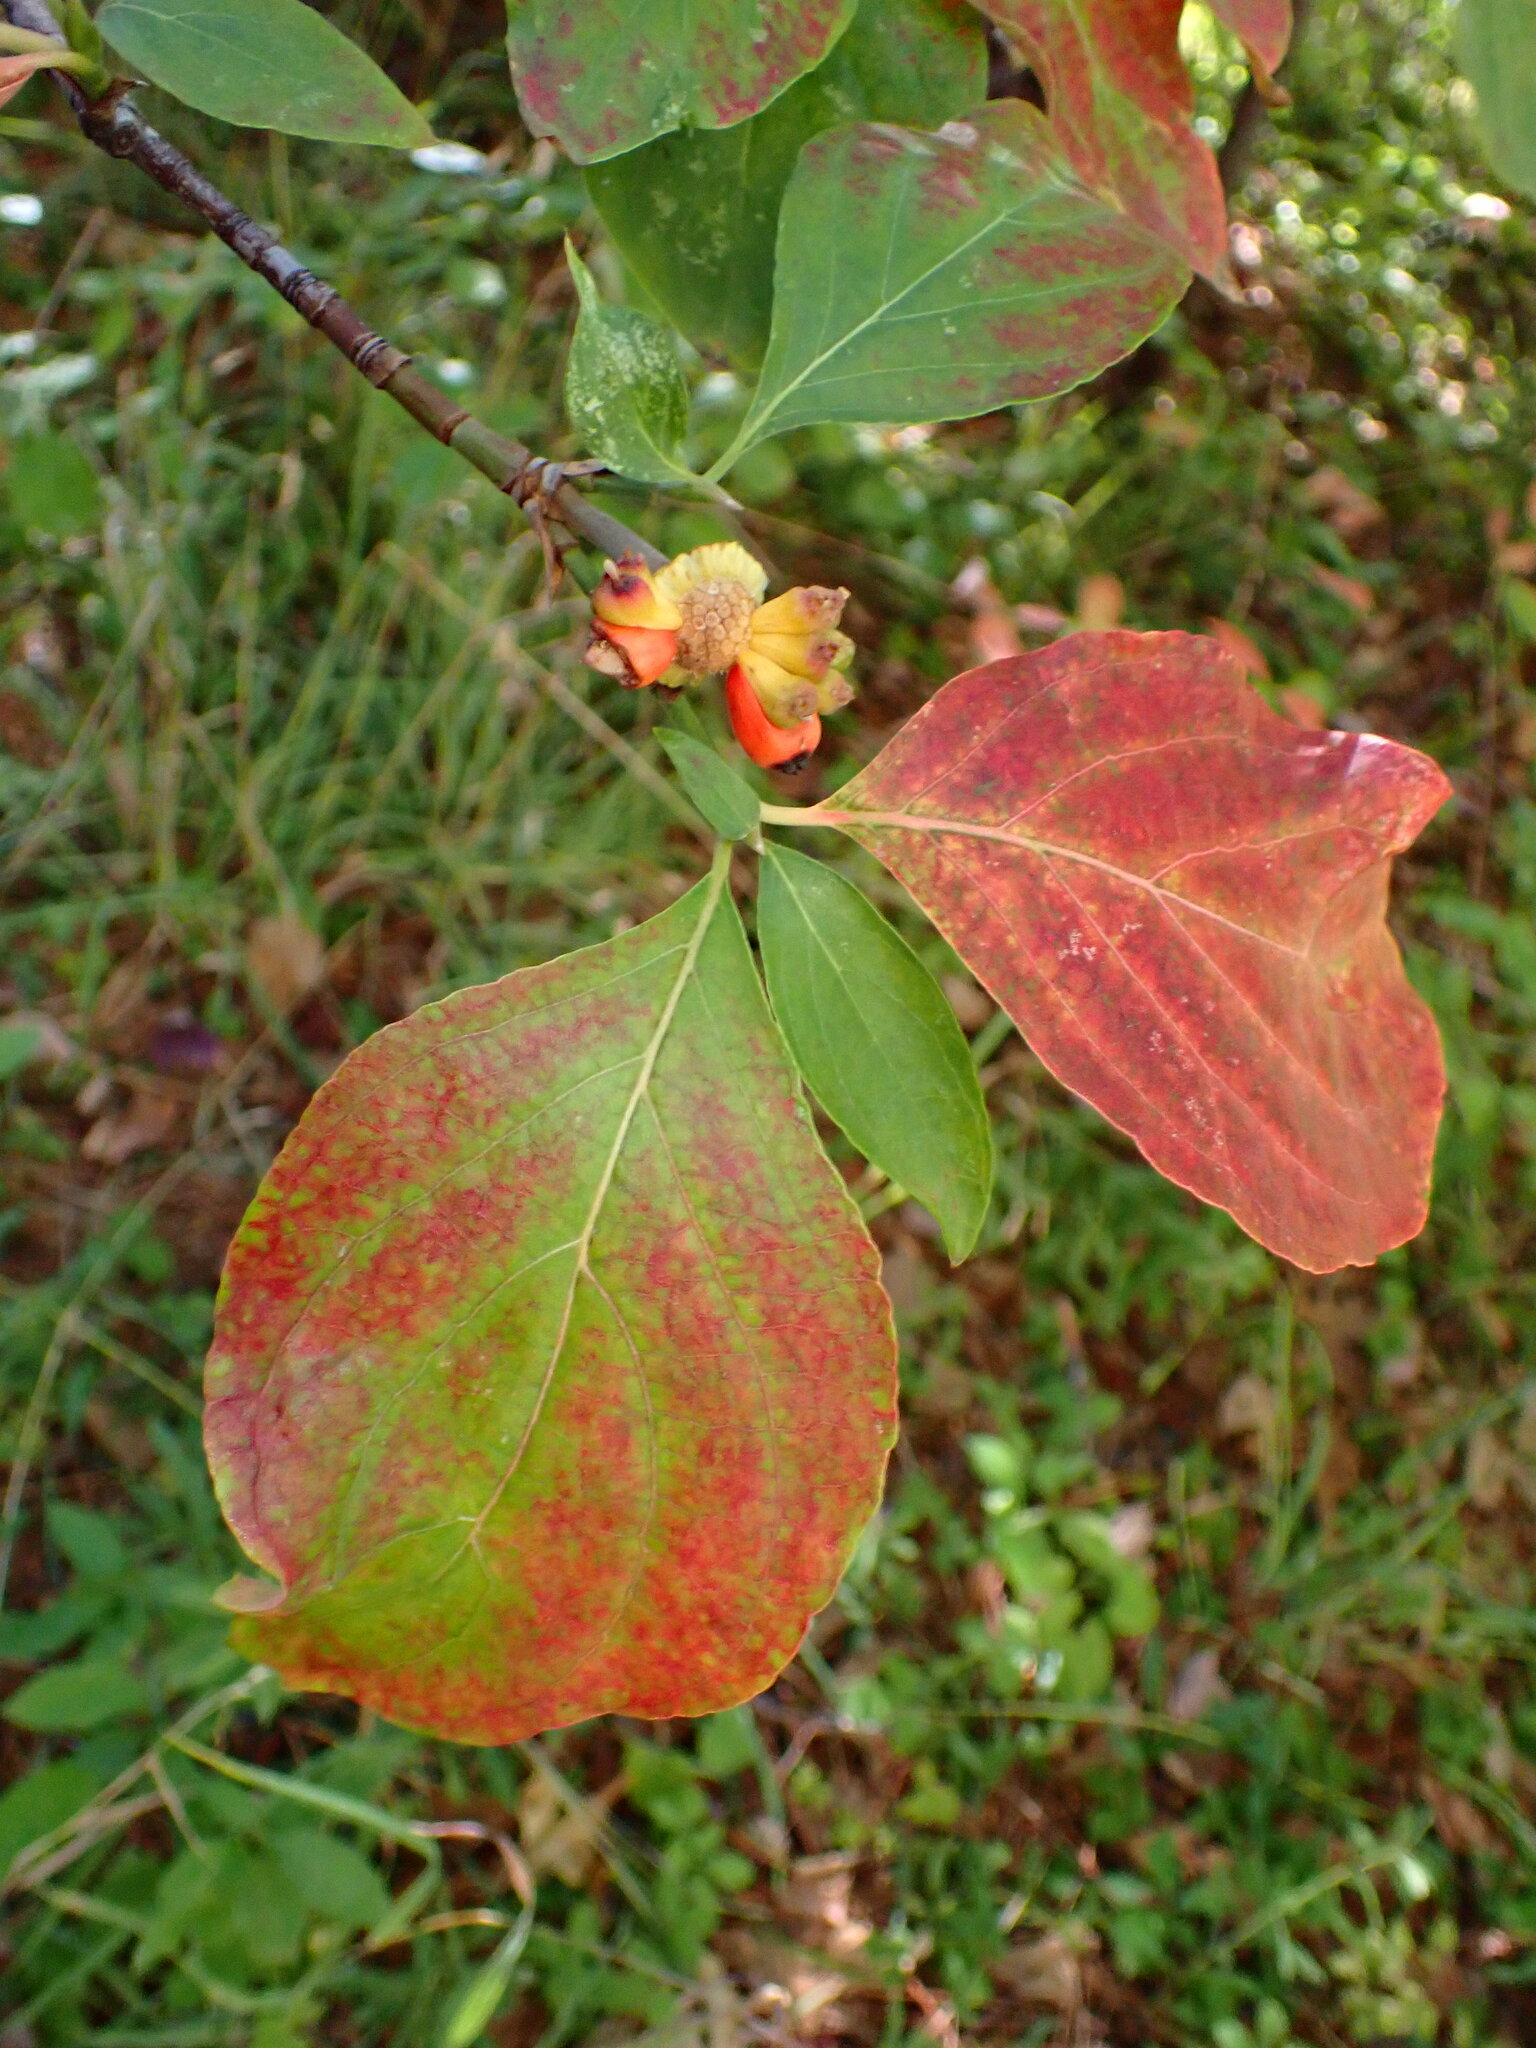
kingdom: Plantae
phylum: Tracheophyta
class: Magnoliopsida
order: Cornales
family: Cornaceae
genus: Cornus
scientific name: Cornus nuttallii
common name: Pacific dogwood
